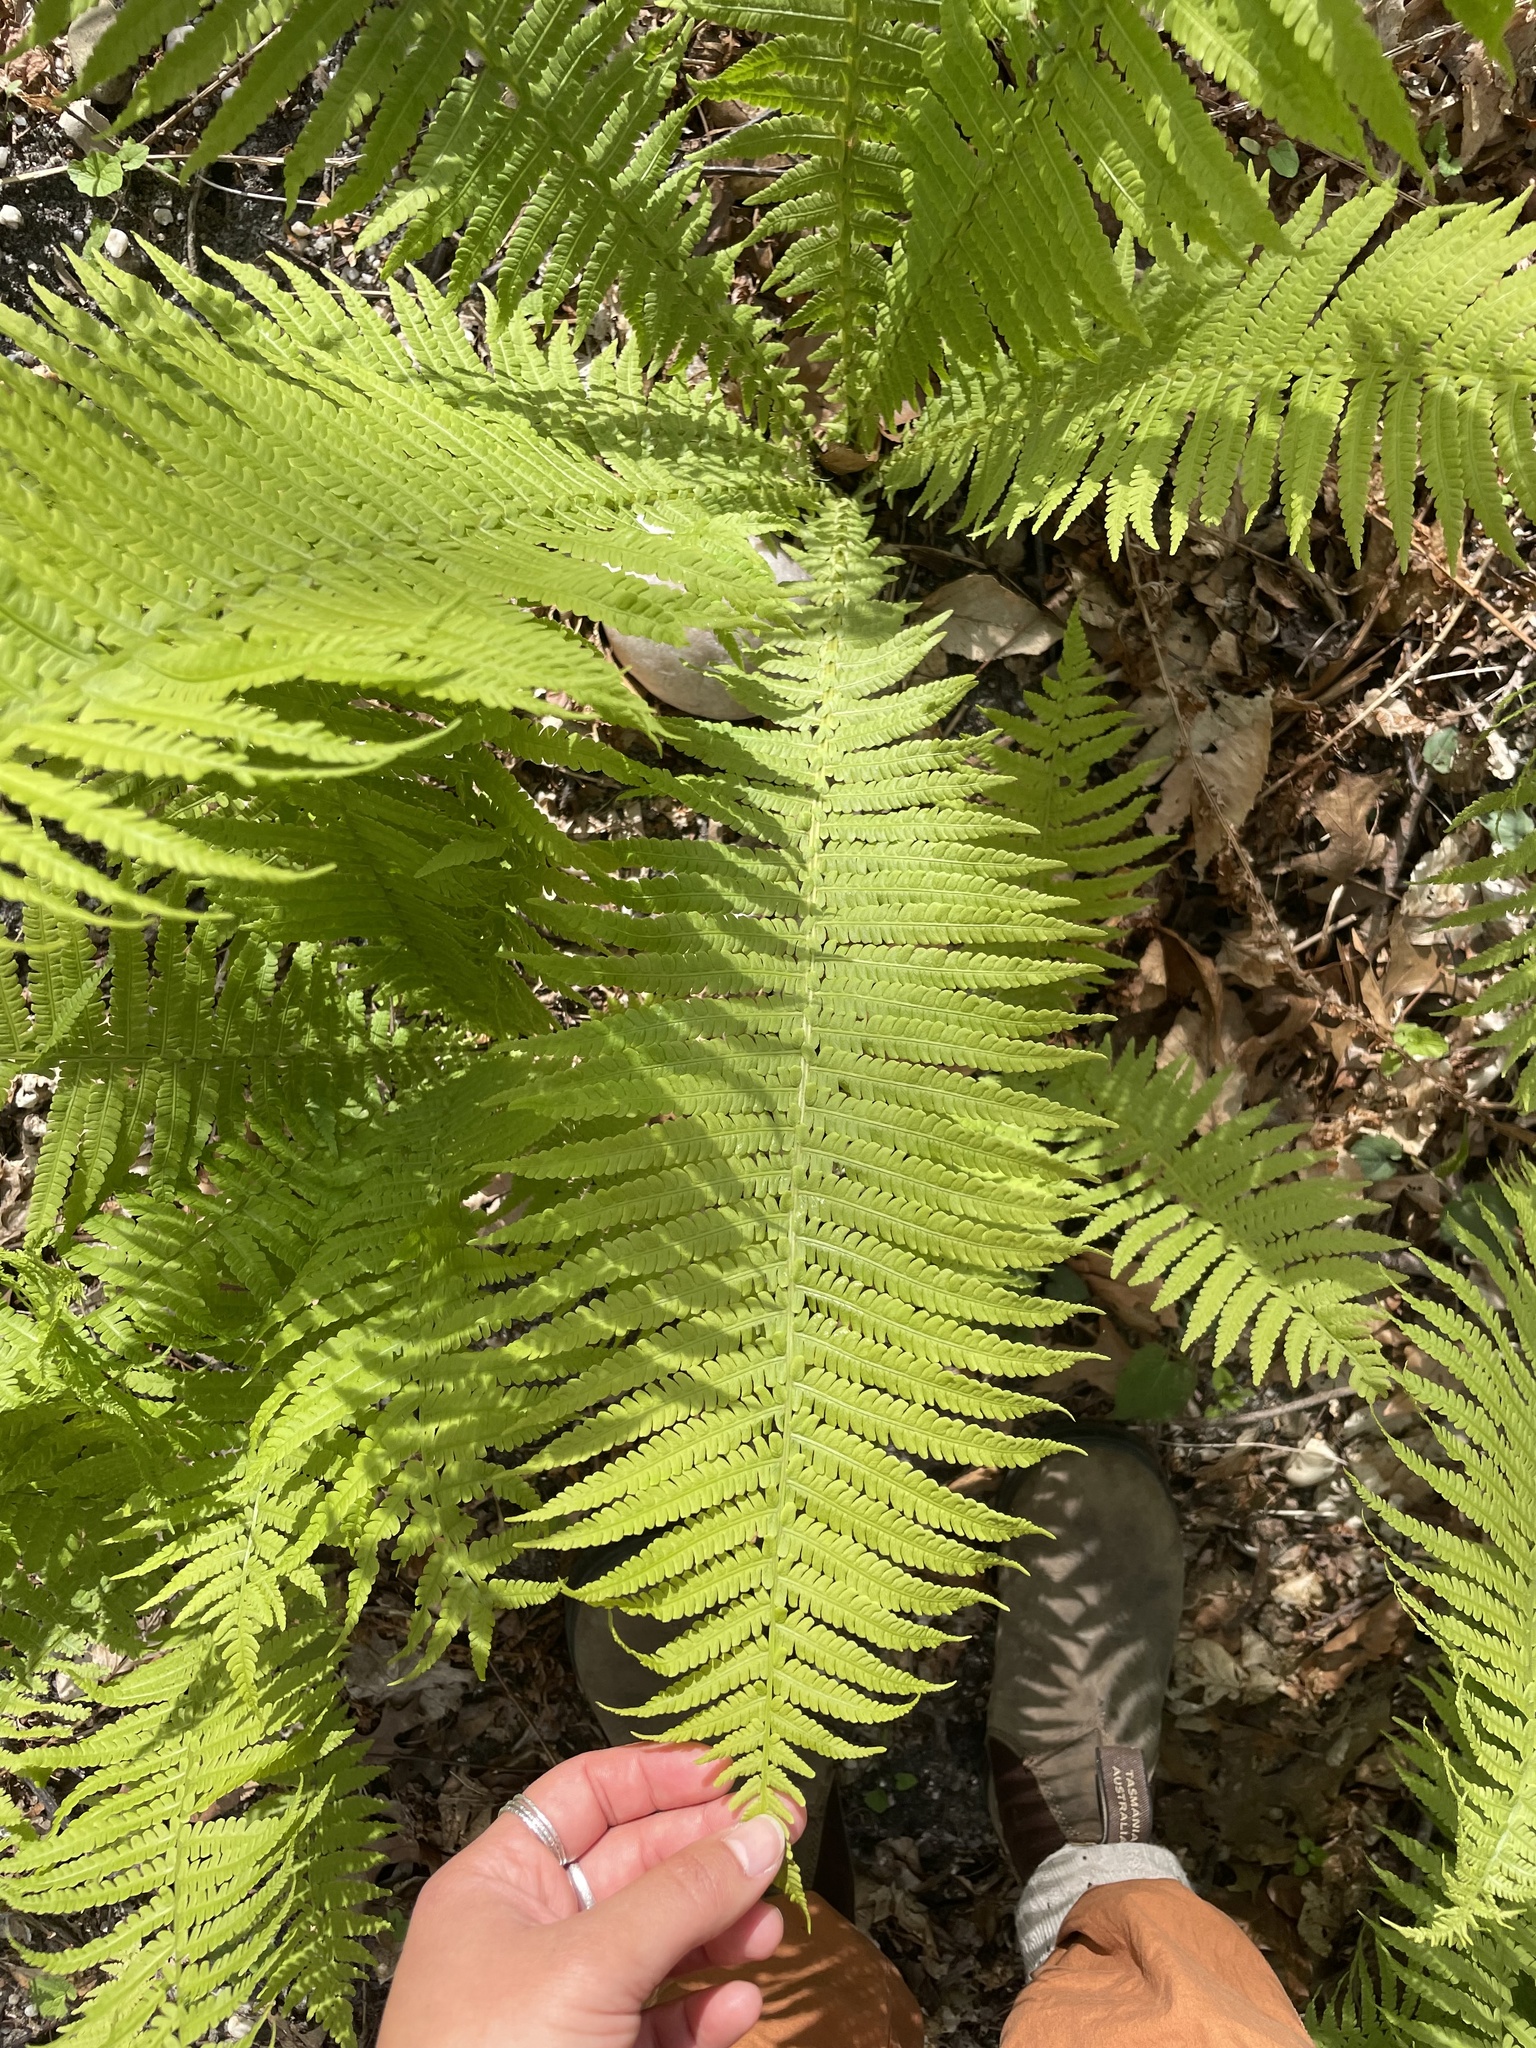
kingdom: Plantae
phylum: Tracheophyta
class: Polypodiopsida
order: Polypodiales
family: Onocleaceae
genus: Matteuccia
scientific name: Matteuccia struthiopteris
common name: Ostrich fern
